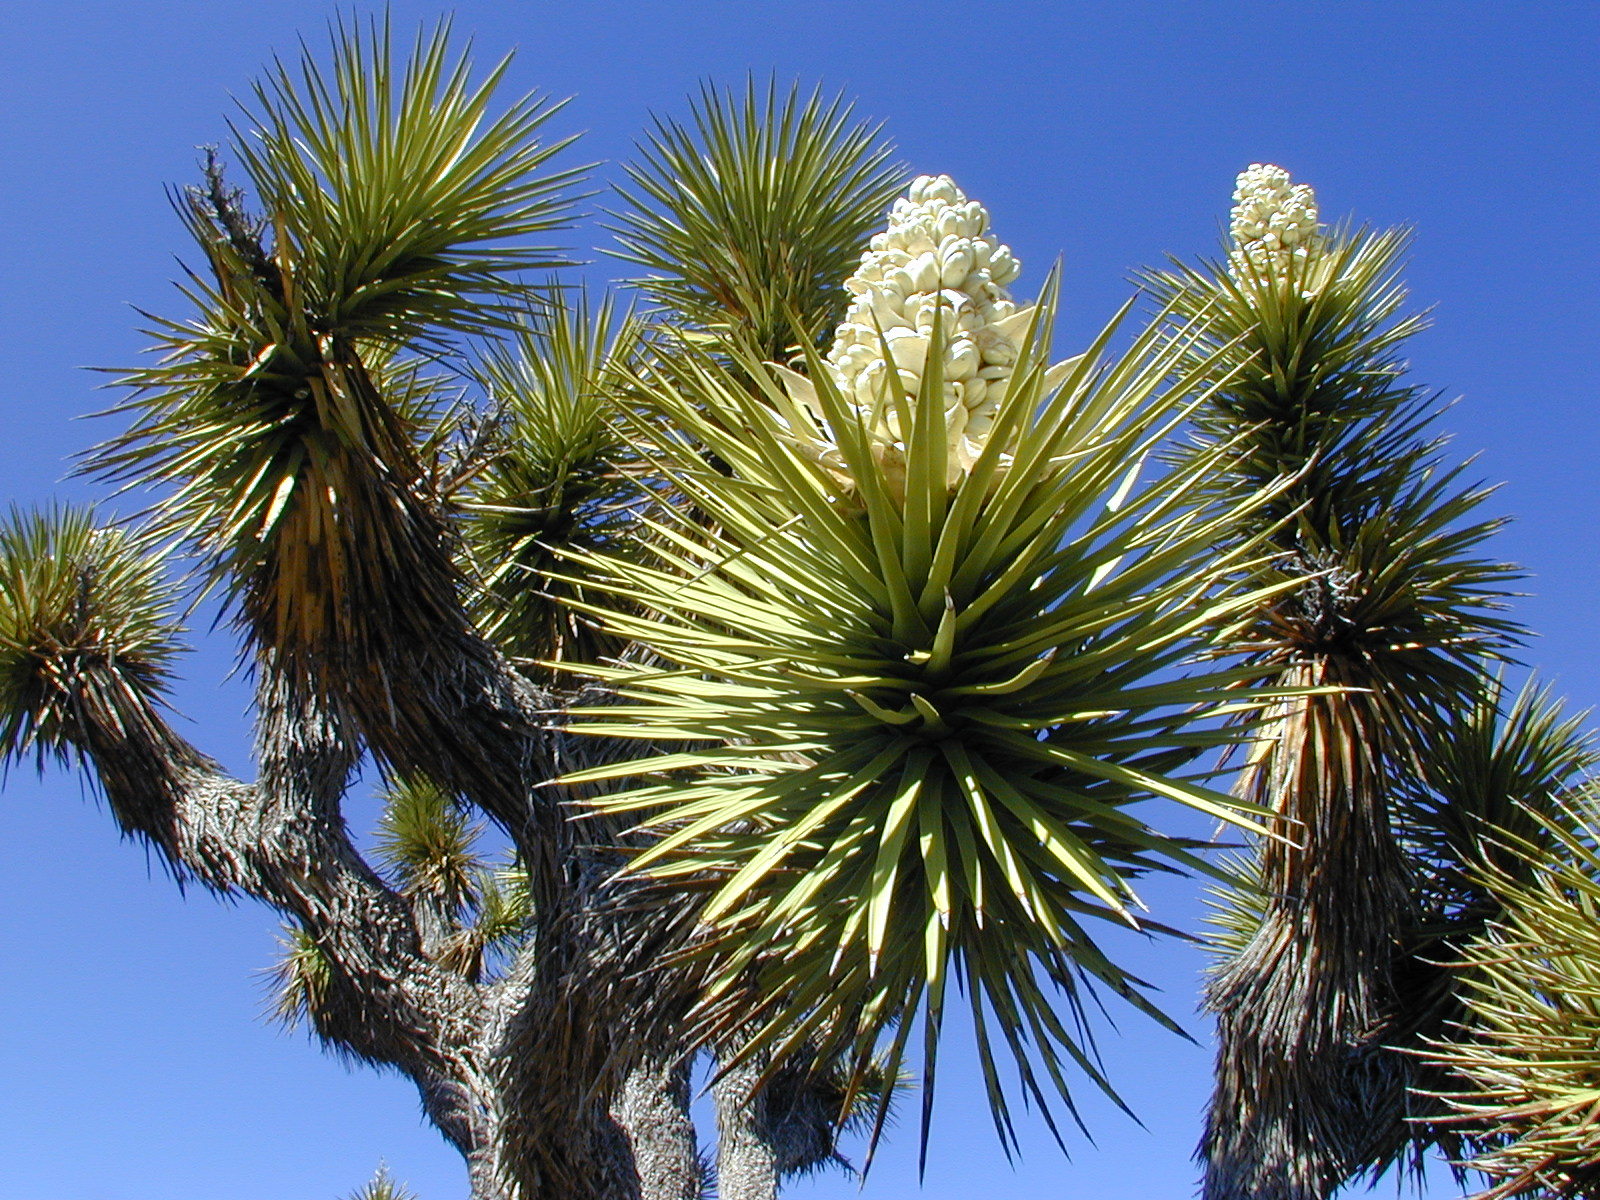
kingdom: Plantae
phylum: Tracheophyta
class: Liliopsida
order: Asparagales
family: Asparagaceae
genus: Yucca
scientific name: Yucca brevifolia
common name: Joshua tree
